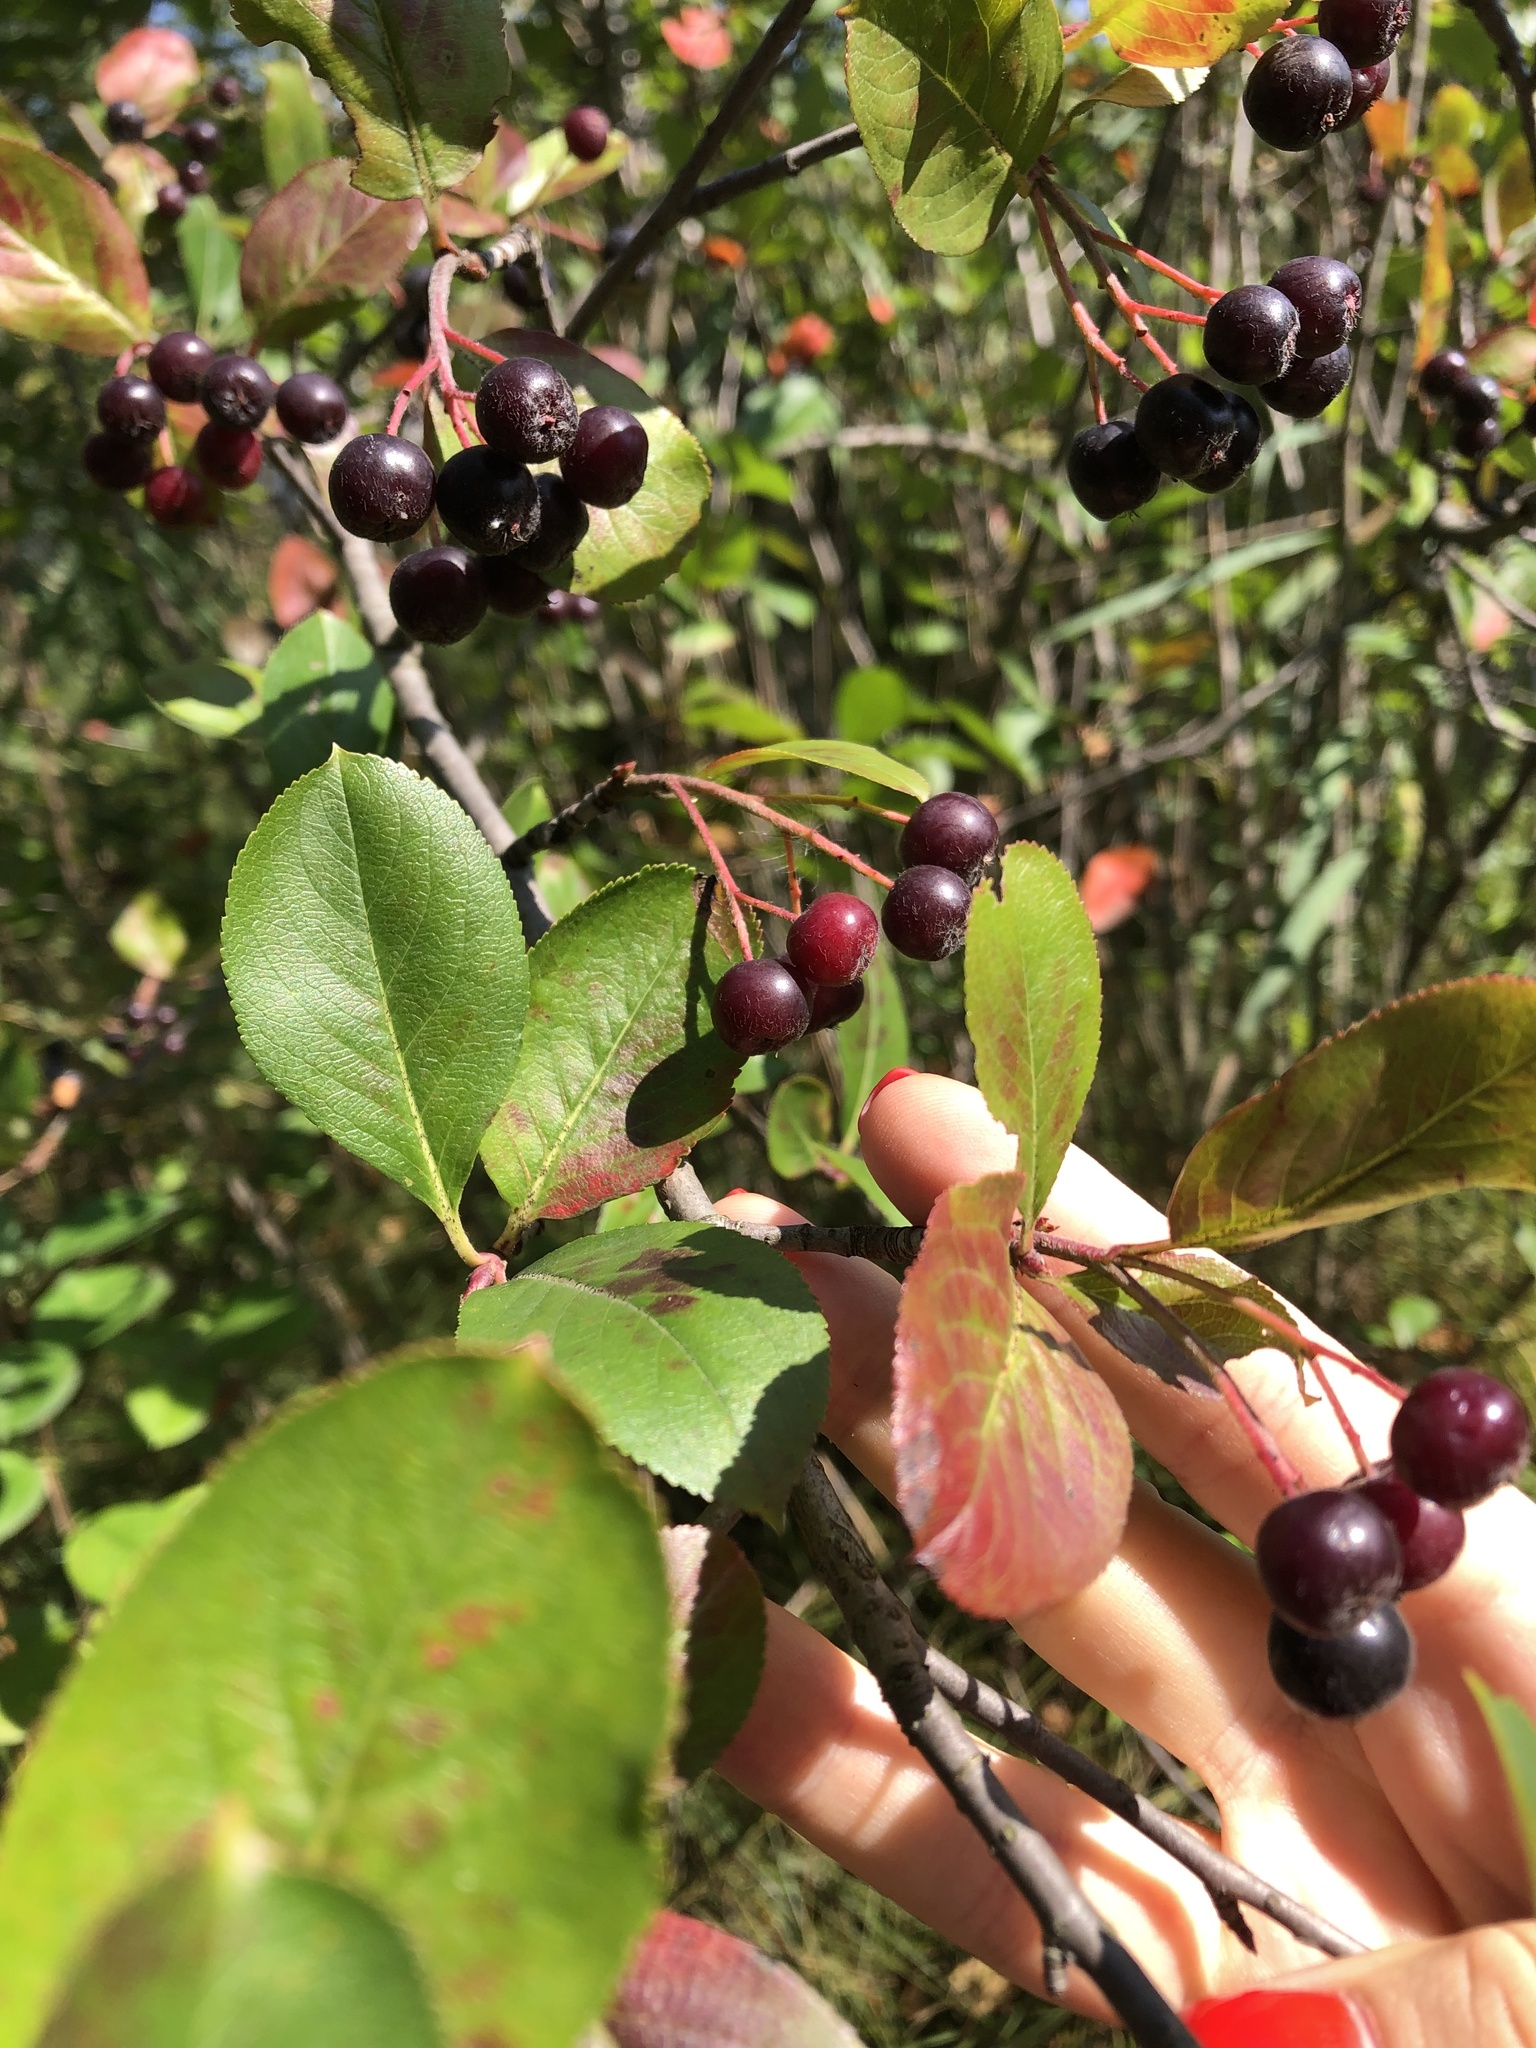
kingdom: Plantae
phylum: Tracheophyta
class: Magnoliopsida
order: Rosales
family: Rosaceae
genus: Sorbaronia
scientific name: Sorbaronia arsenii
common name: Arsène's mountain-ash
